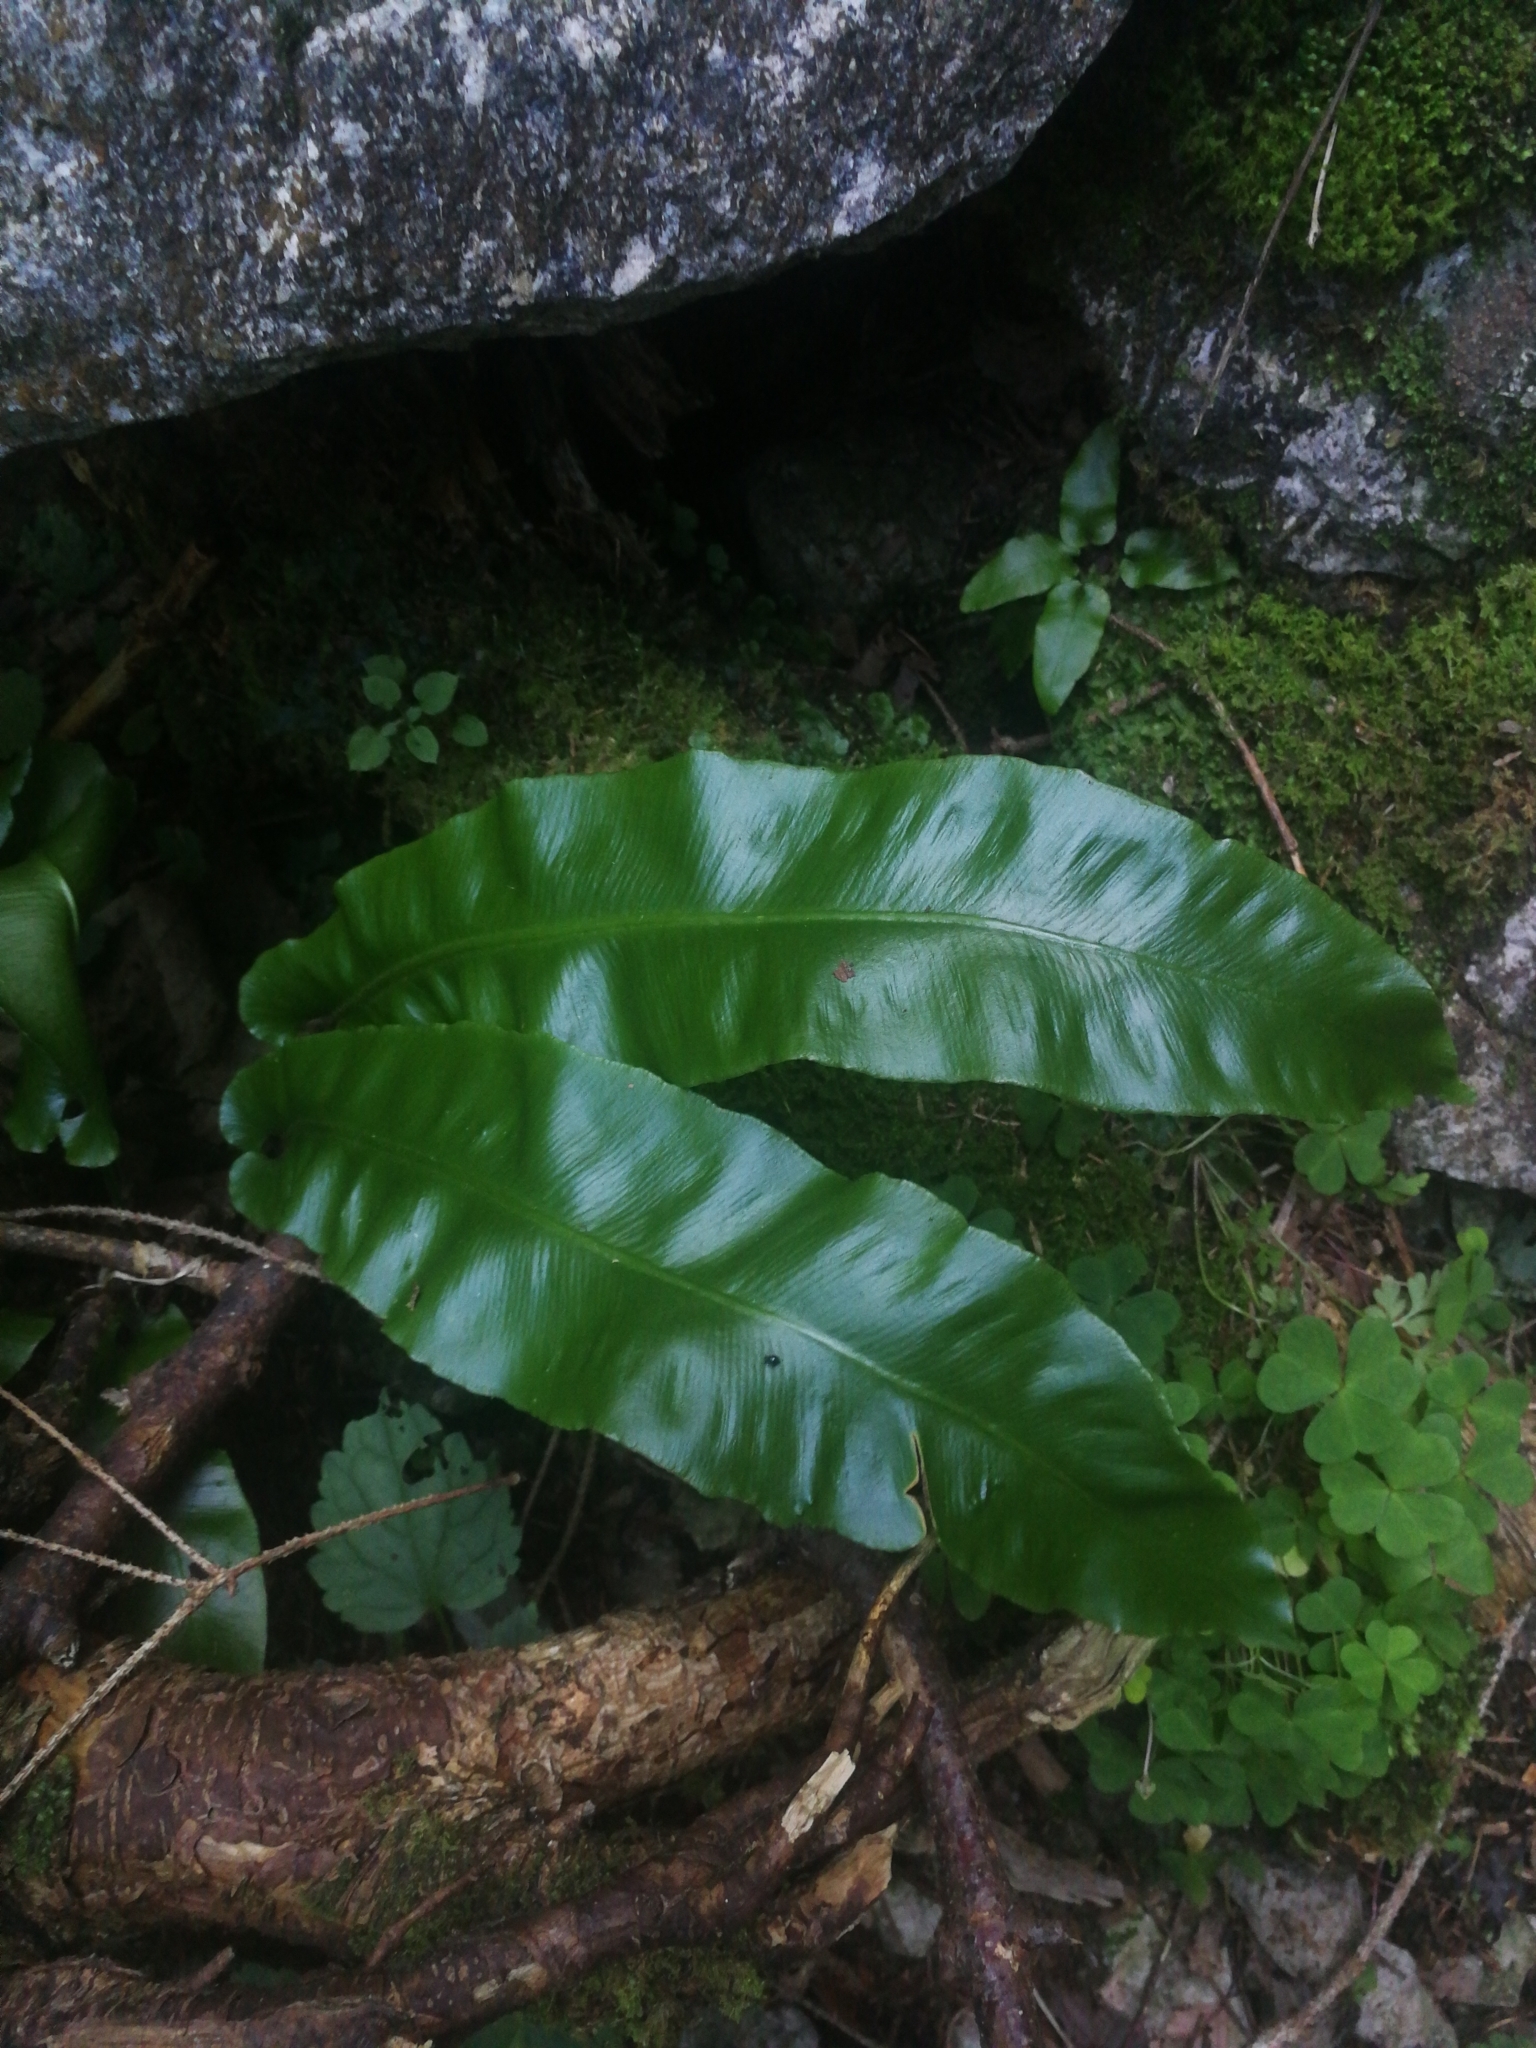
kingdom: Plantae
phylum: Tracheophyta
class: Polypodiopsida
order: Polypodiales
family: Aspleniaceae
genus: Asplenium
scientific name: Asplenium scolopendrium
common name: Hart's-tongue fern
